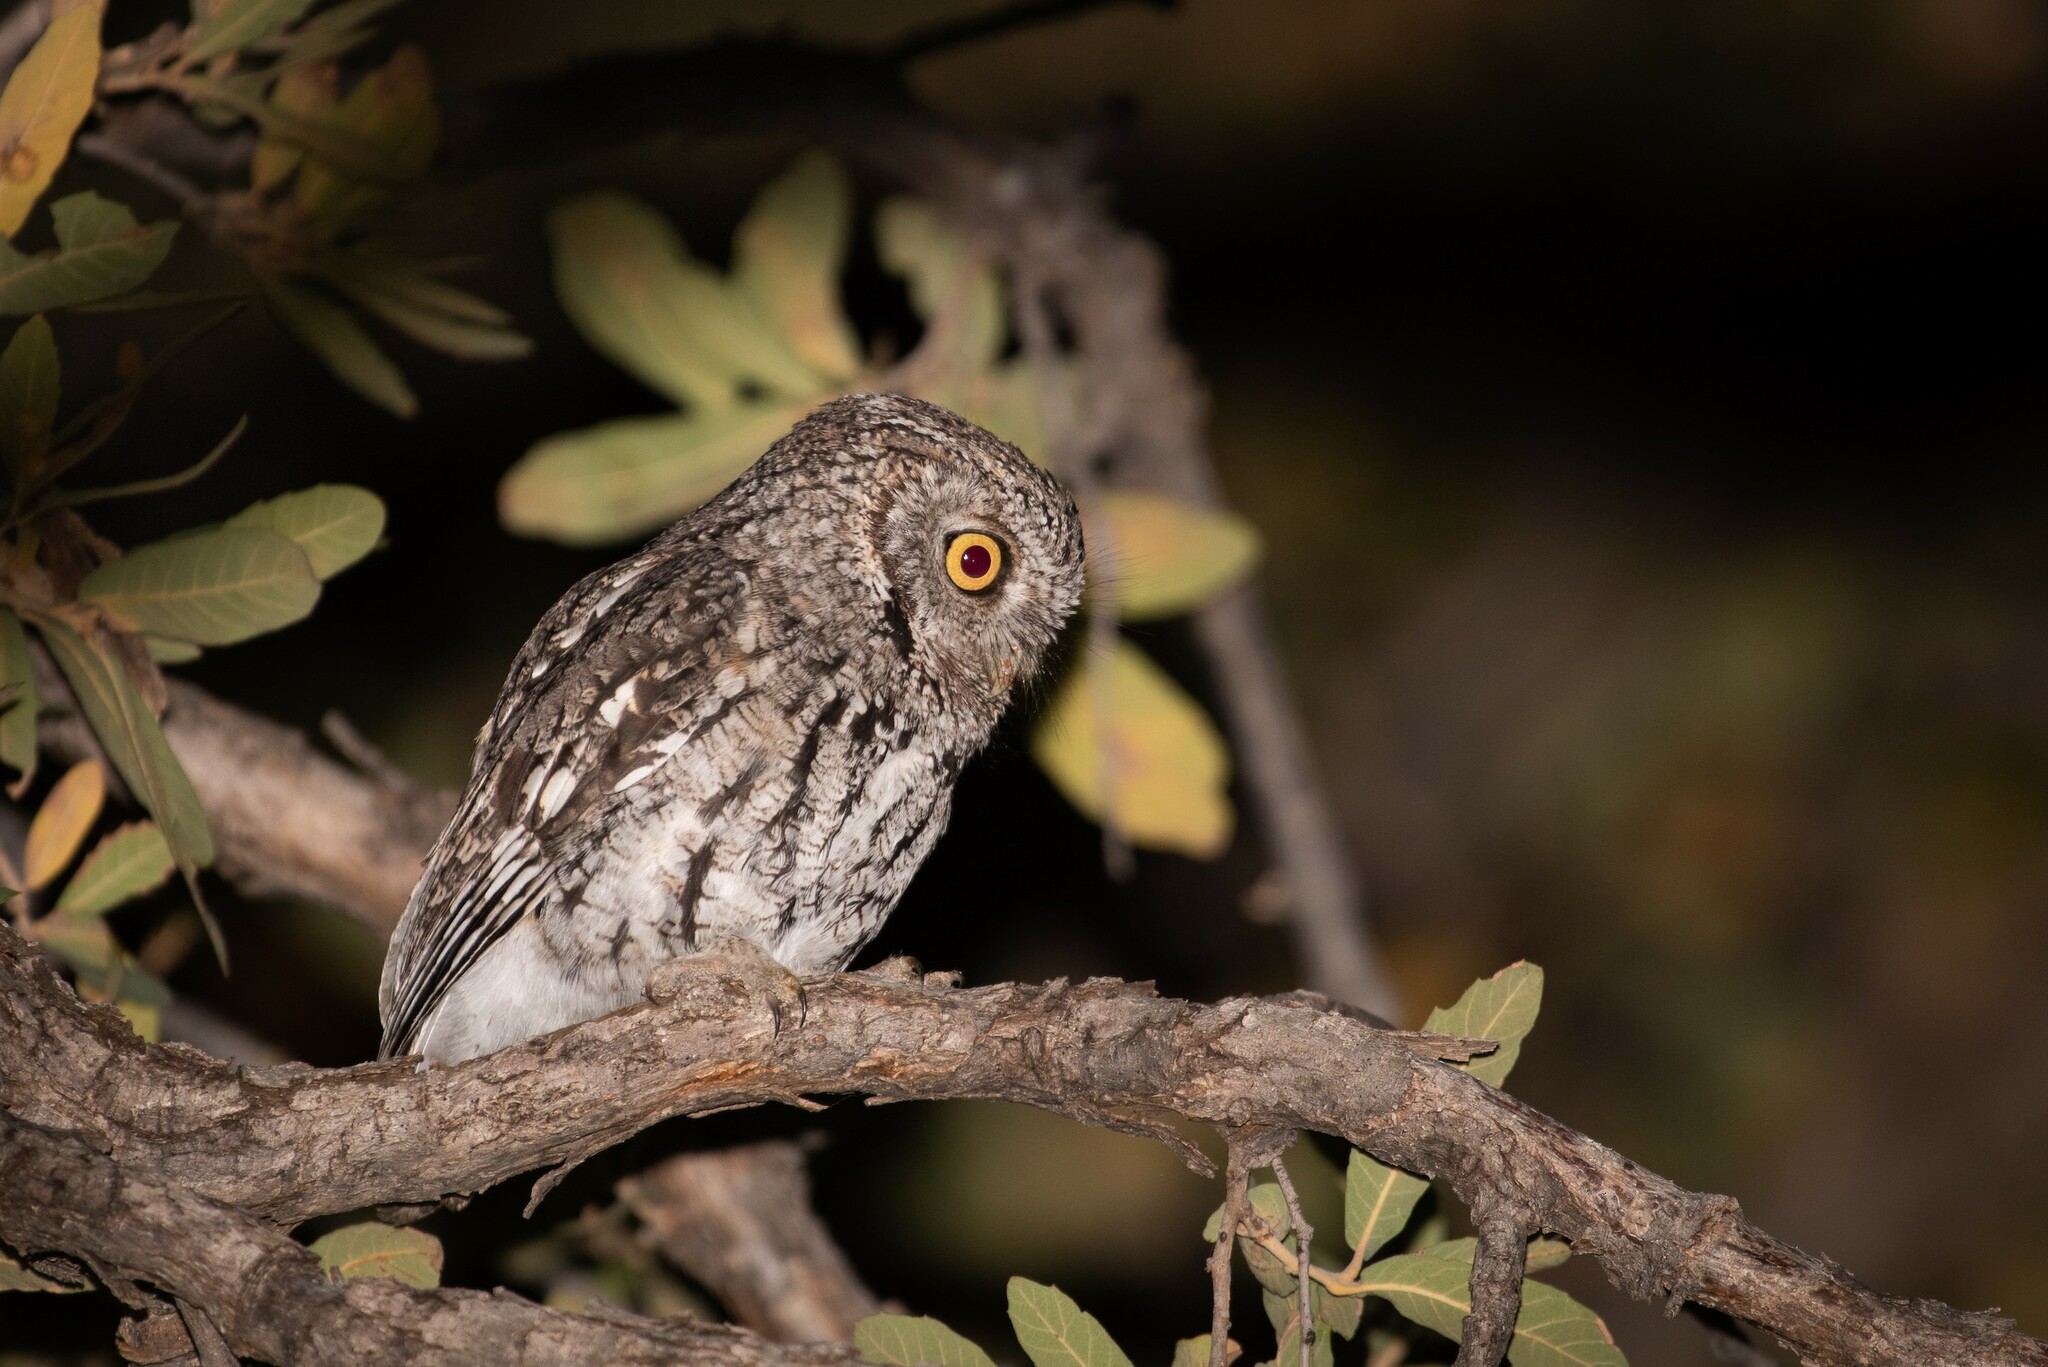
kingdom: Animalia
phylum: Chordata
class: Aves
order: Strigiformes
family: Strigidae
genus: Megascops
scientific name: Megascops trichopsis
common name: Whiskered screech-owl
